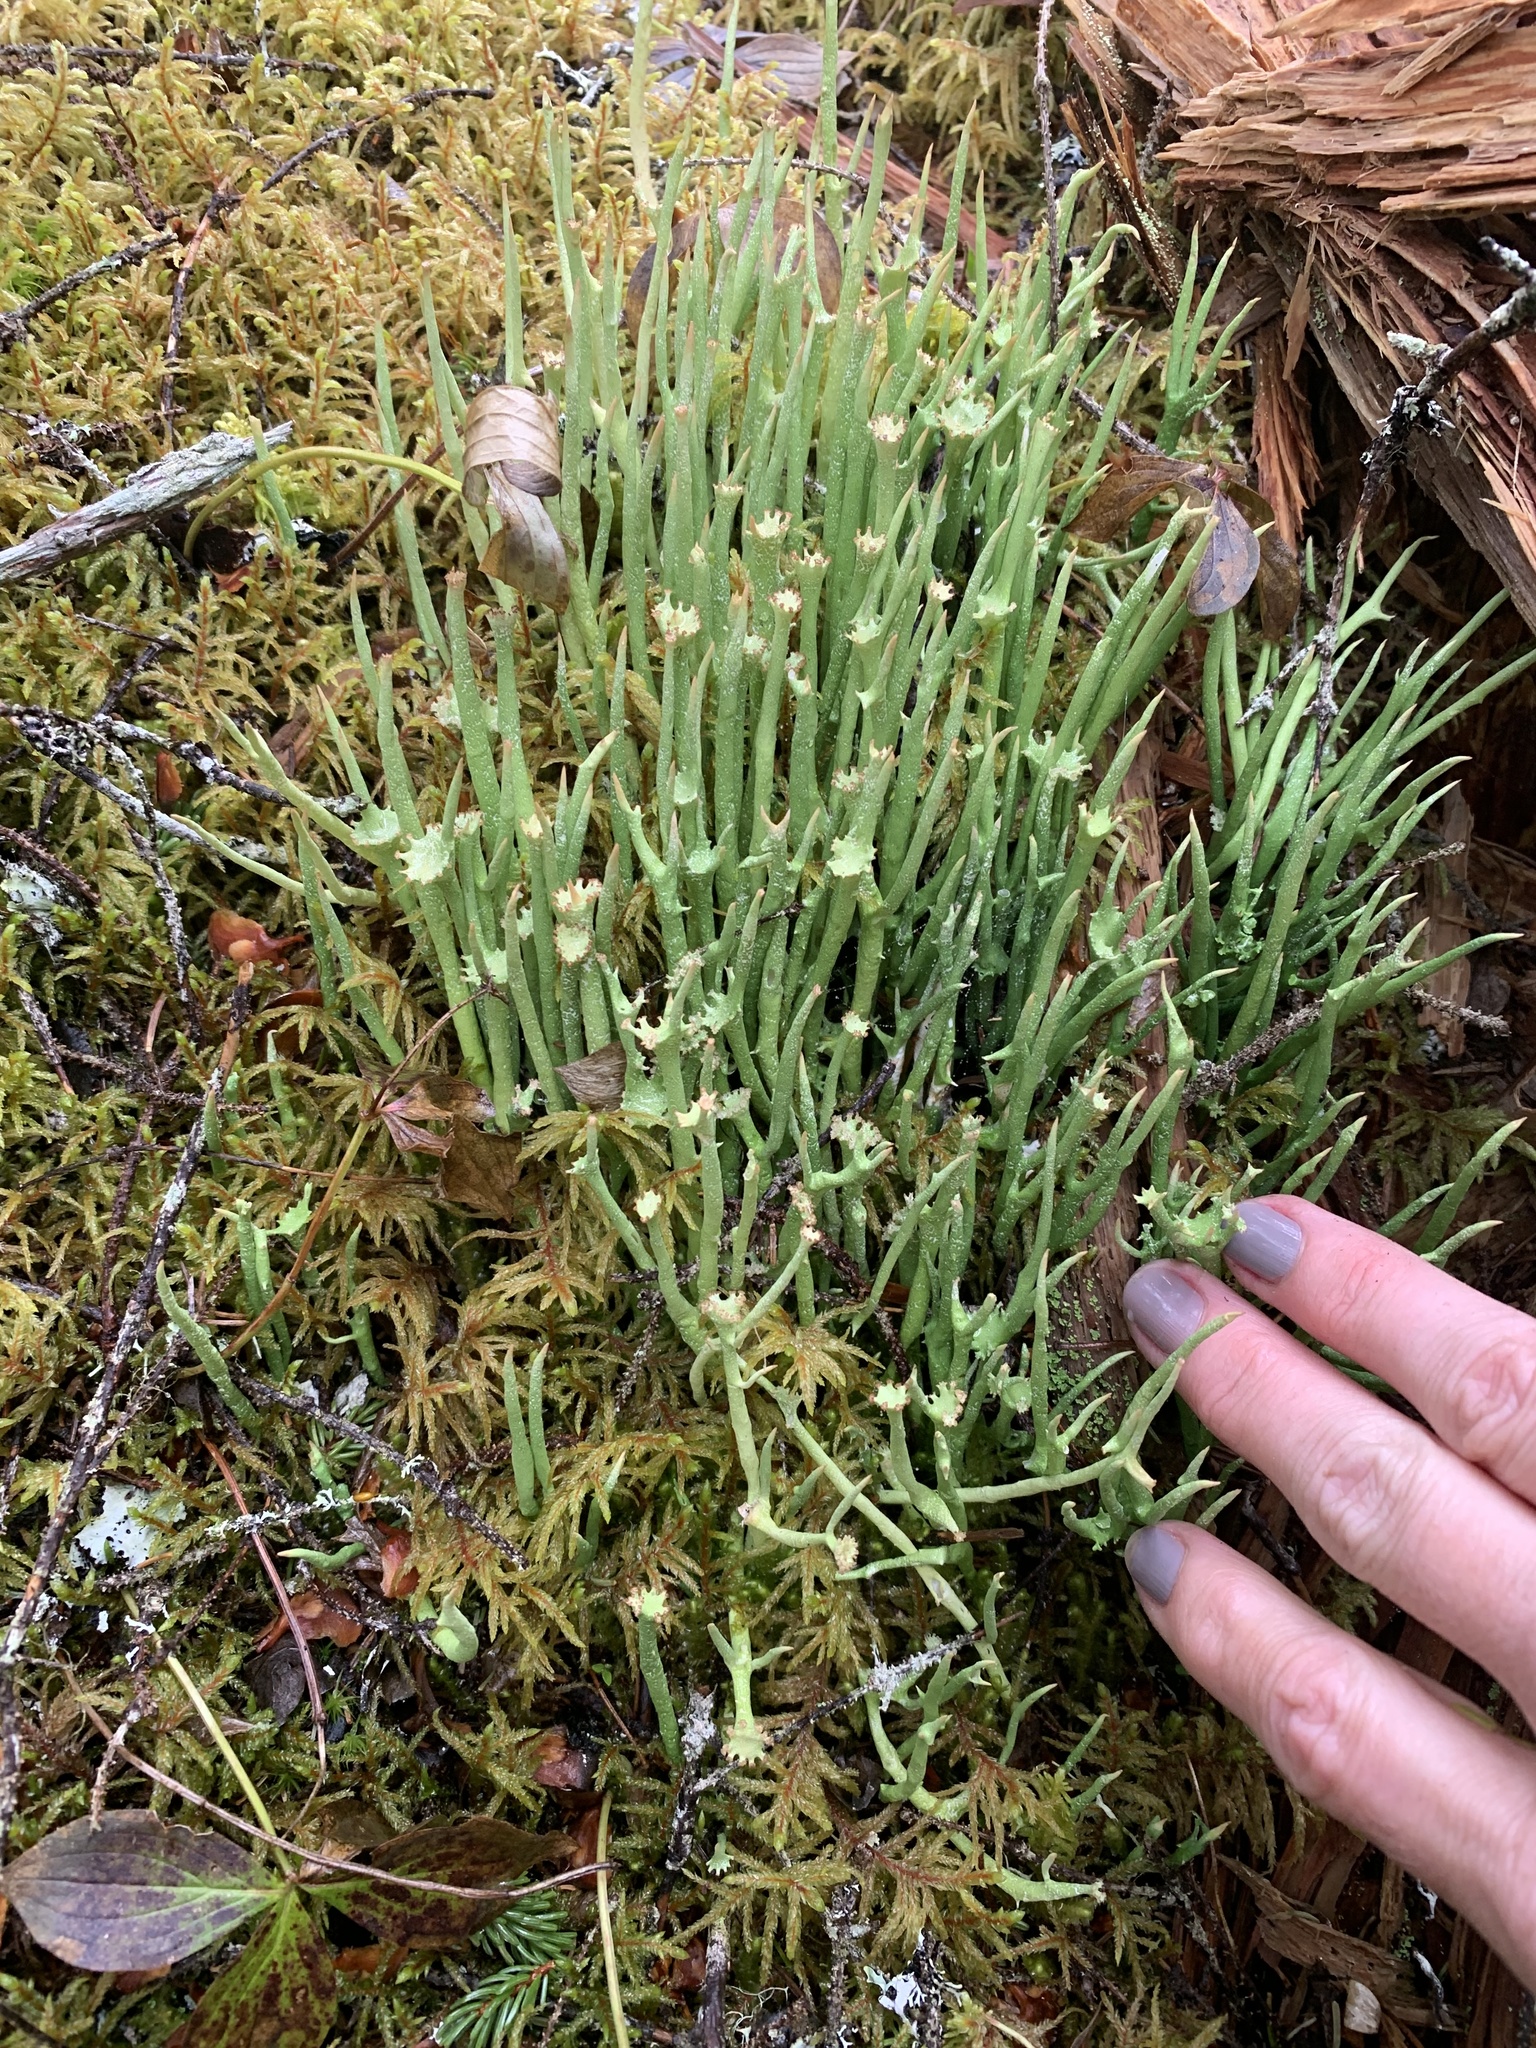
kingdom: Fungi
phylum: Ascomycota
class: Lecanoromycetes
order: Lecanorales
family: Cladoniaceae
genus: Cladonia
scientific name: Cladonia maxima
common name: Giant cladonia lichen
